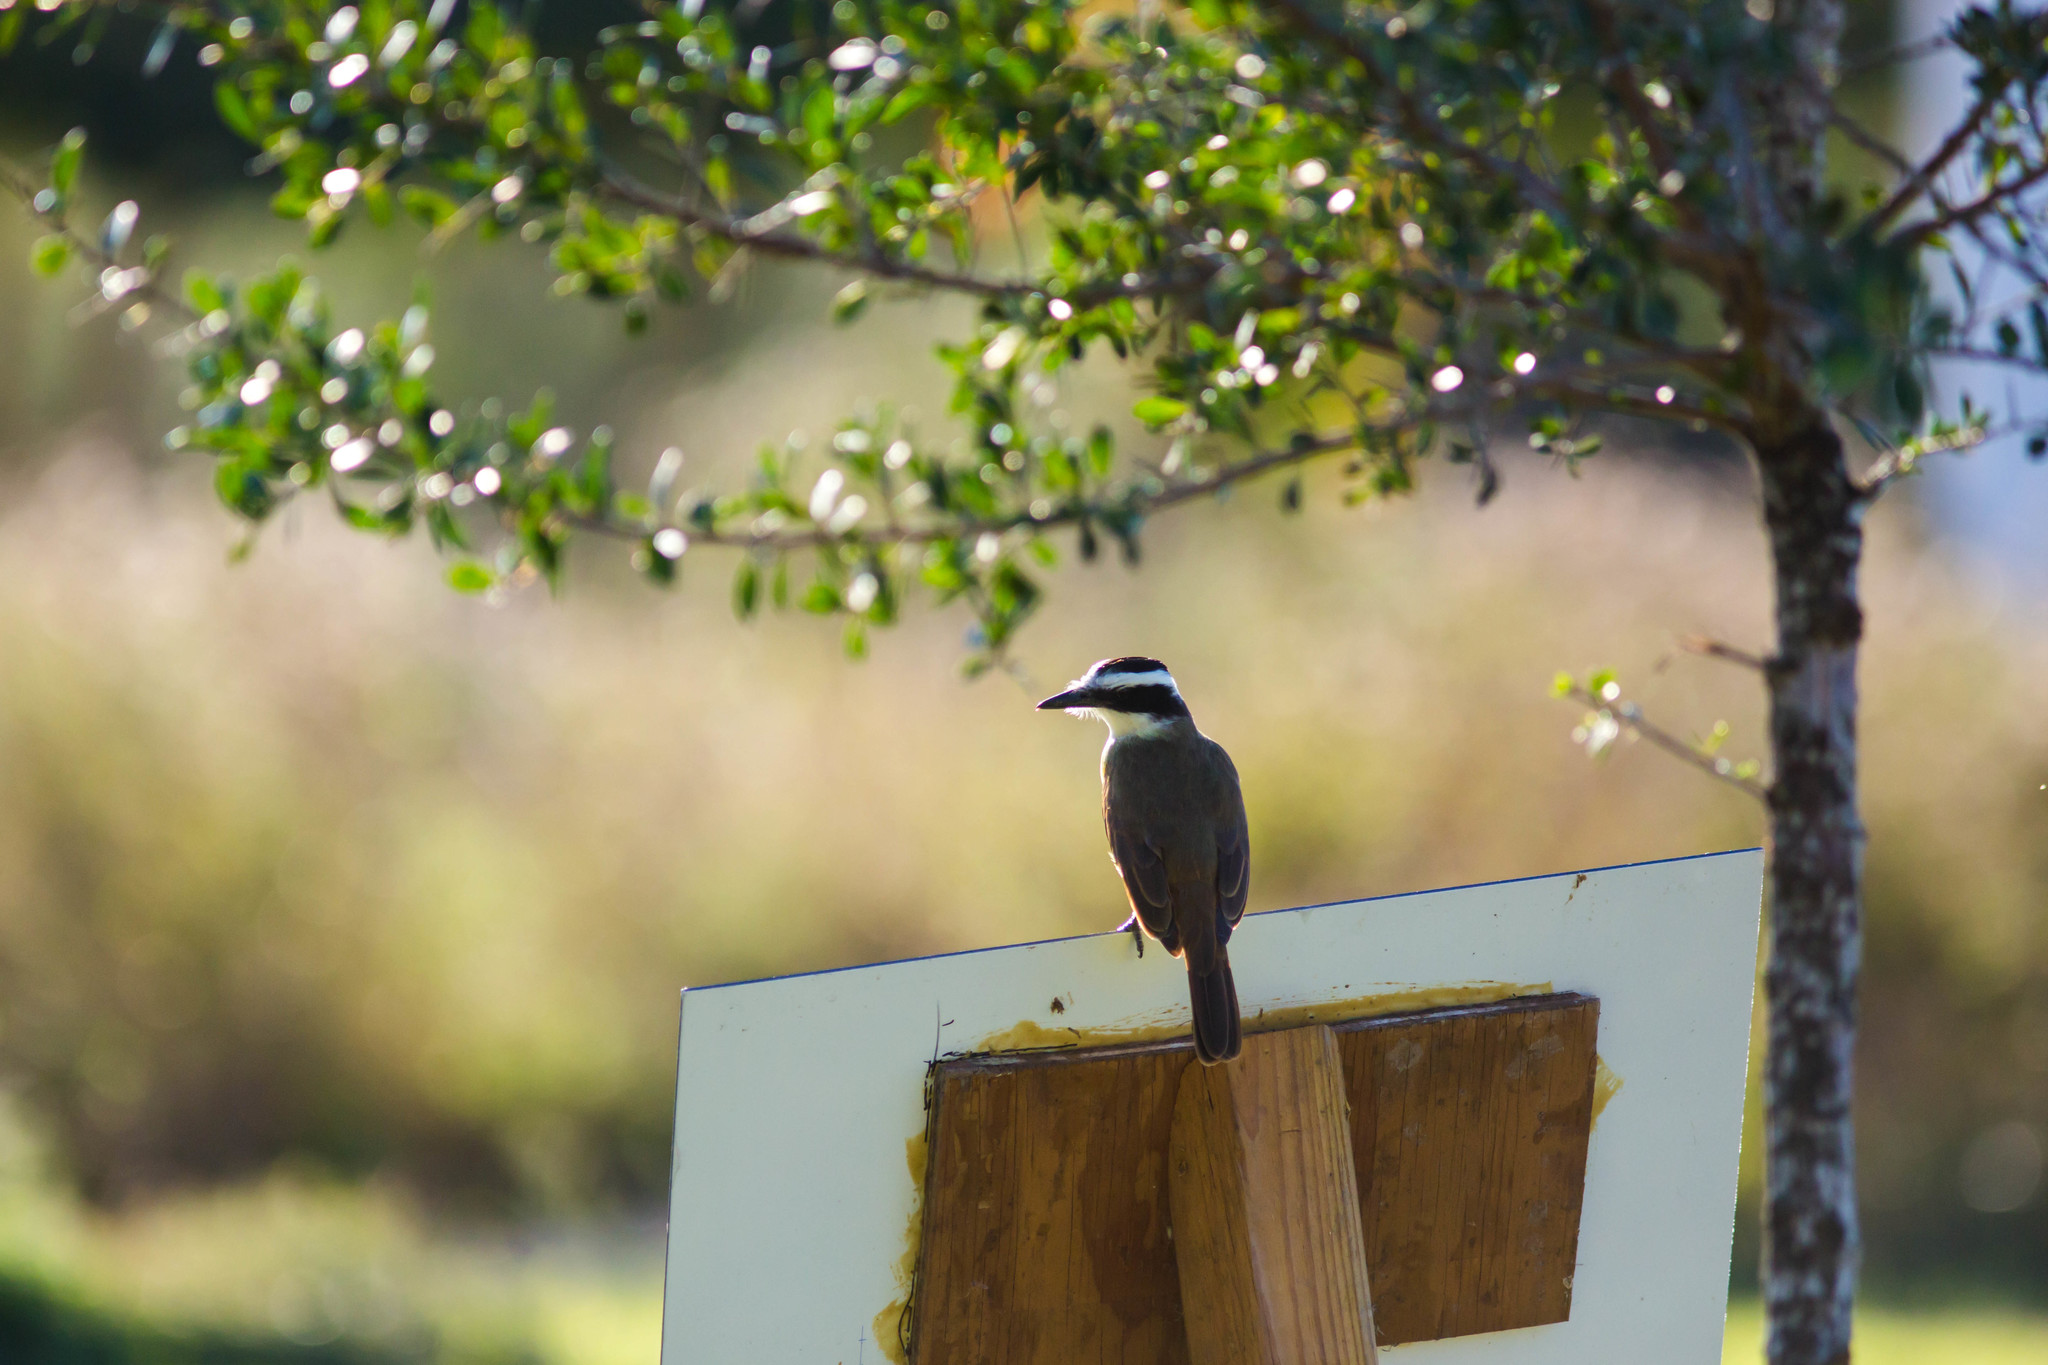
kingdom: Animalia
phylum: Chordata
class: Aves
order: Passeriformes
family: Tyrannidae
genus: Pitangus
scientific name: Pitangus sulphuratus
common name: Great kiskadee
